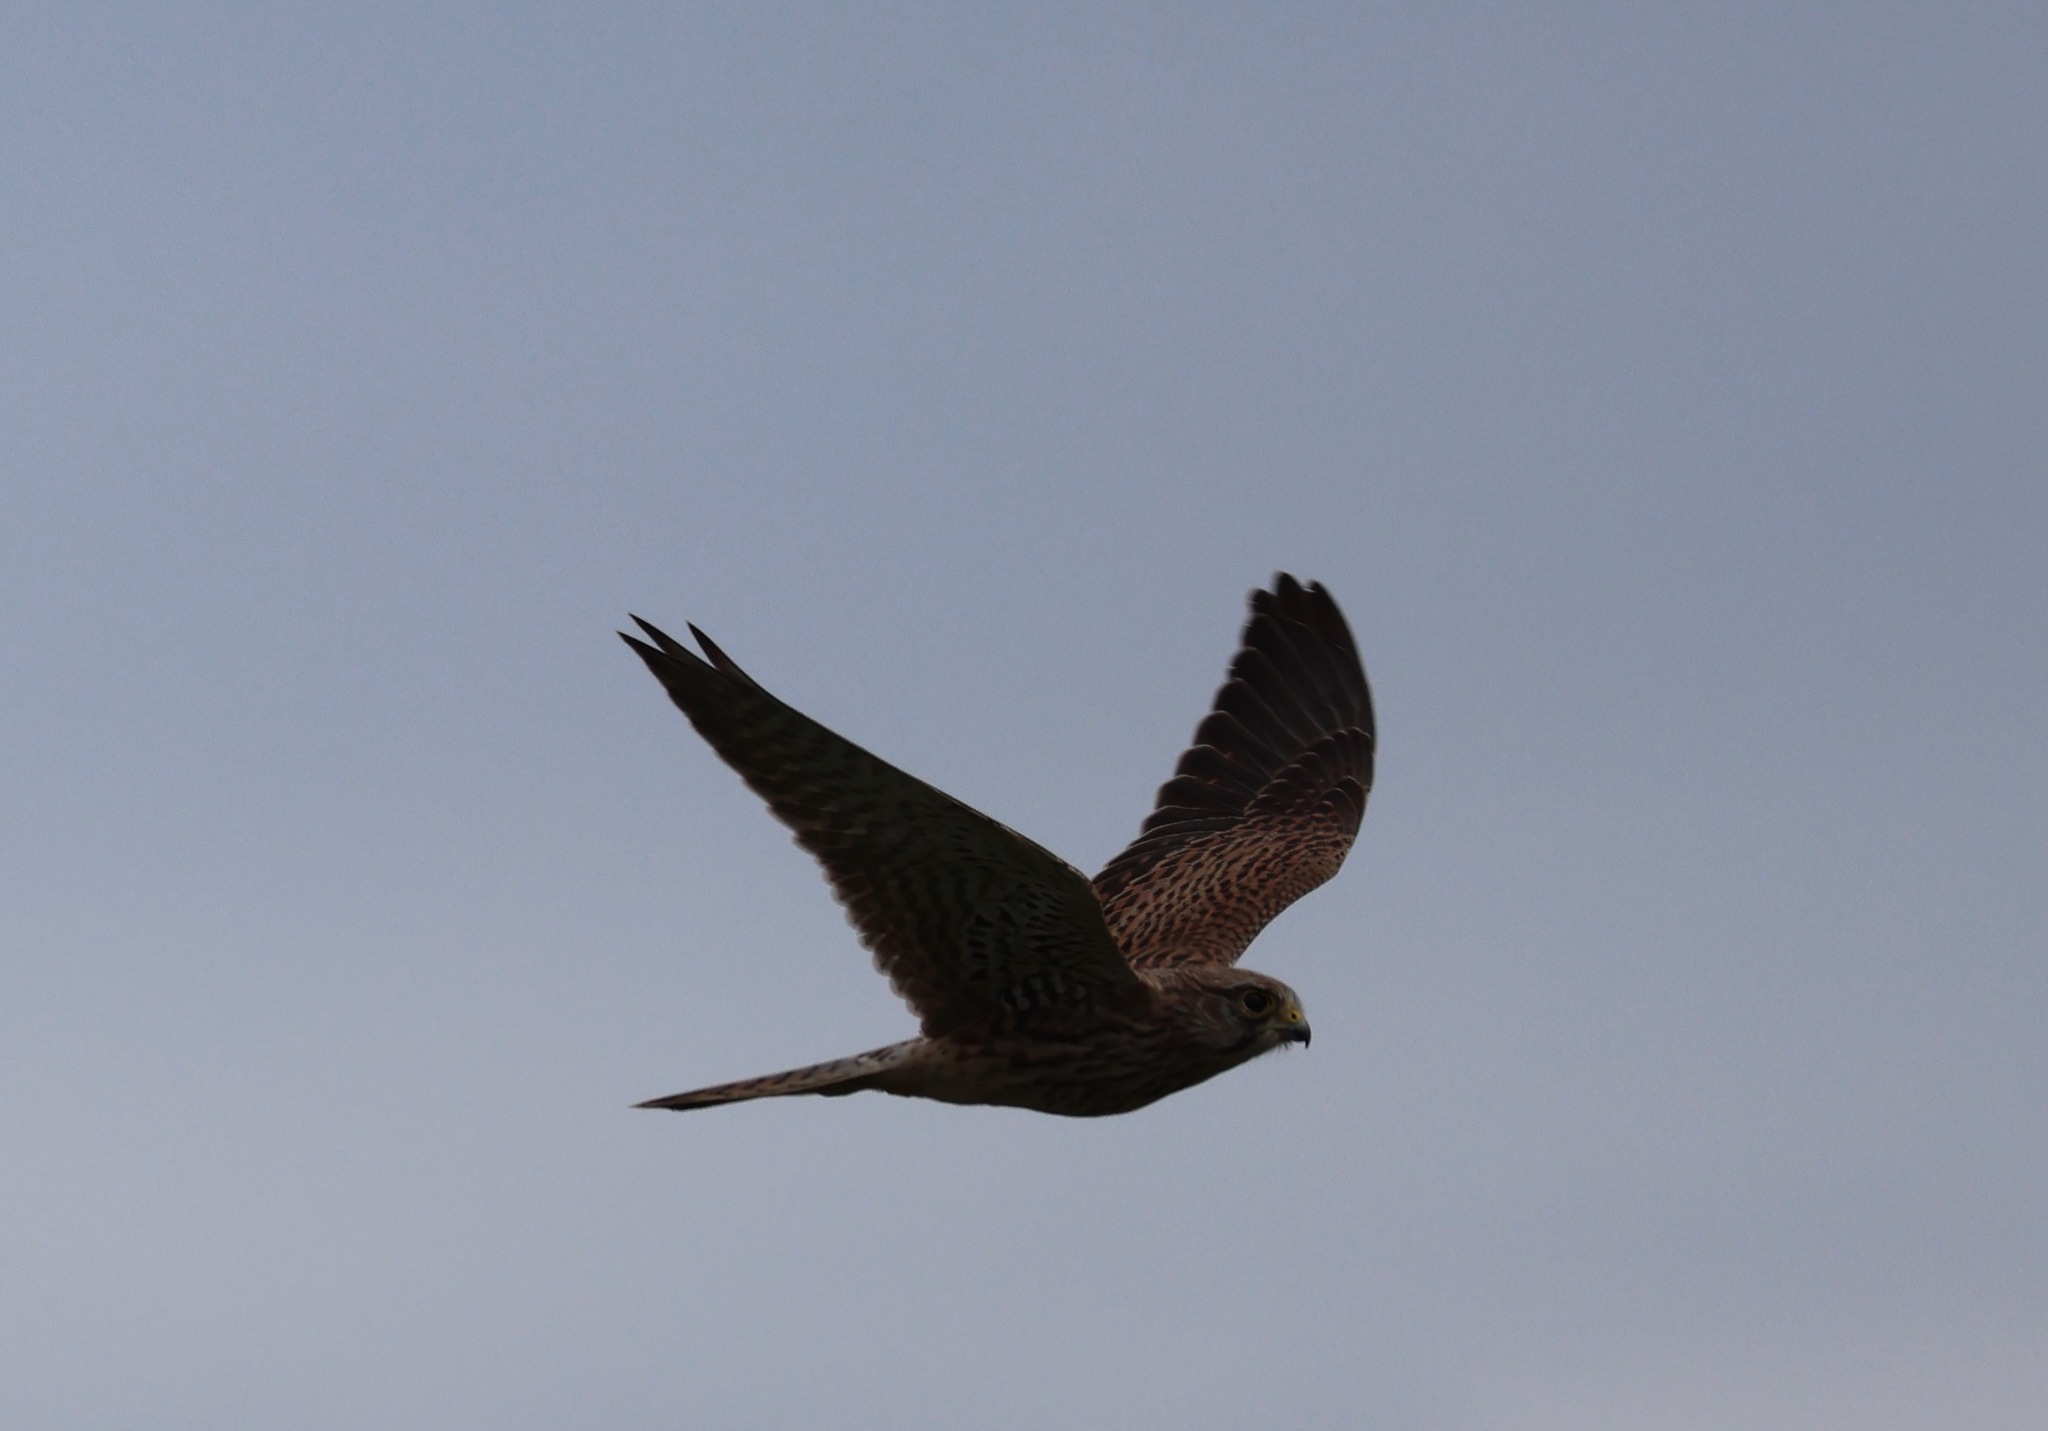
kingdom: Animalia
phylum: Chordata
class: Aves
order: Falconiformes
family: Falconidae
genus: Falco
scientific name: Falco tinnunculus
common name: Common kestrel
